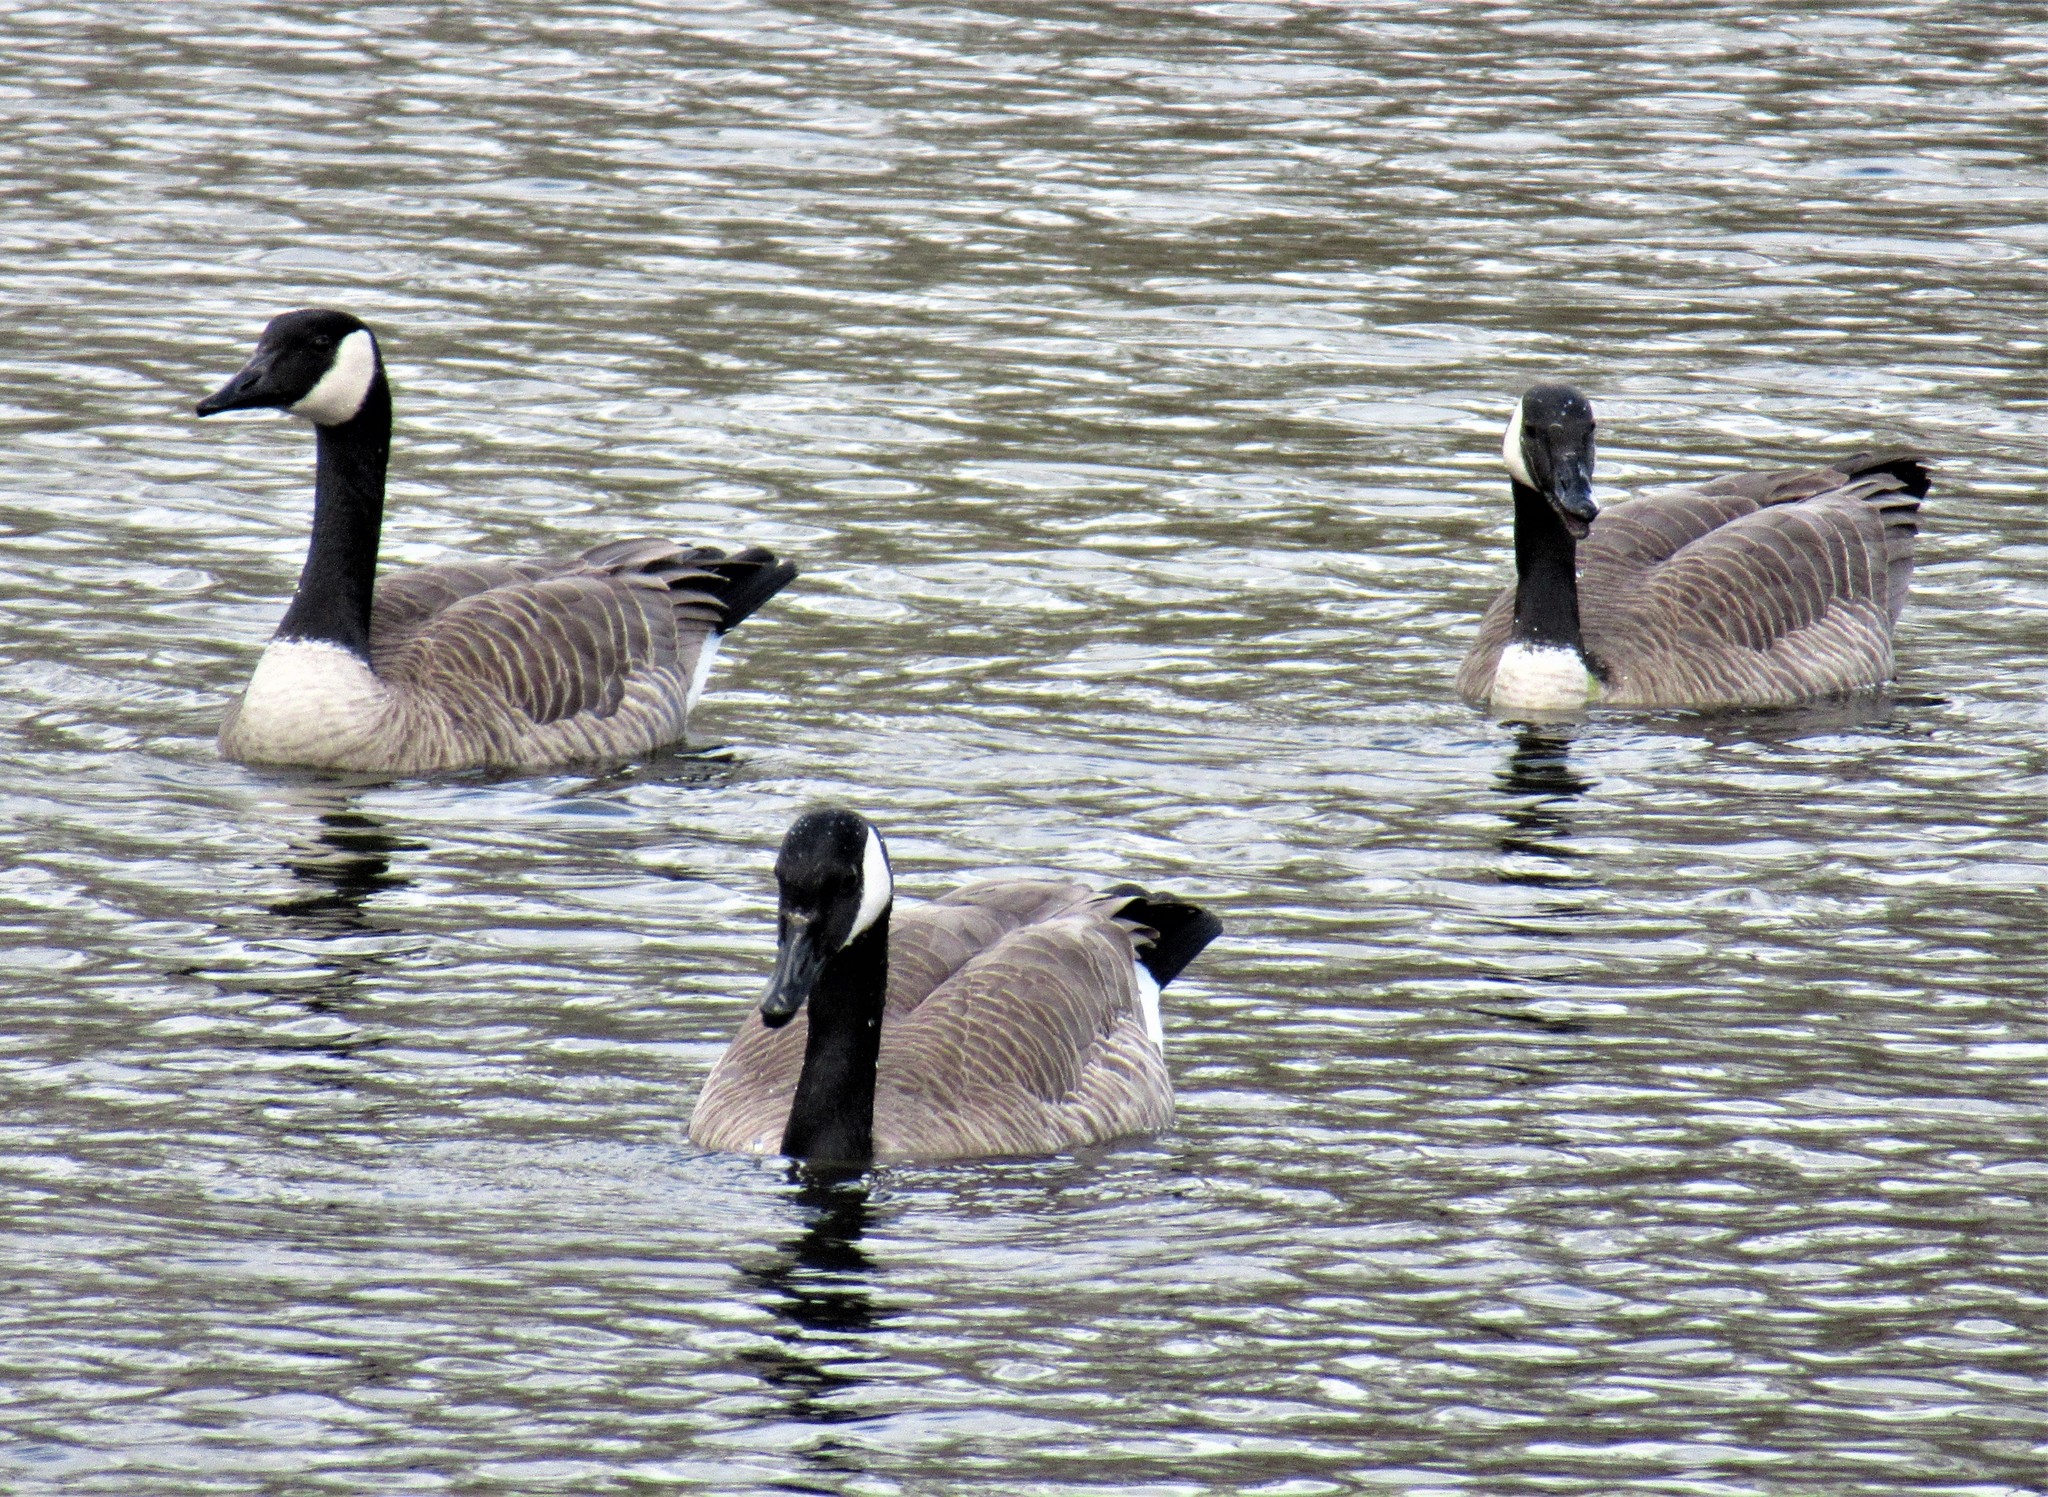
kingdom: Animalia
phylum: Chordata
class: Aves
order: Anseriformes
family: Anatidae
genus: Branta
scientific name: Branta canadensis
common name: Canada goose
